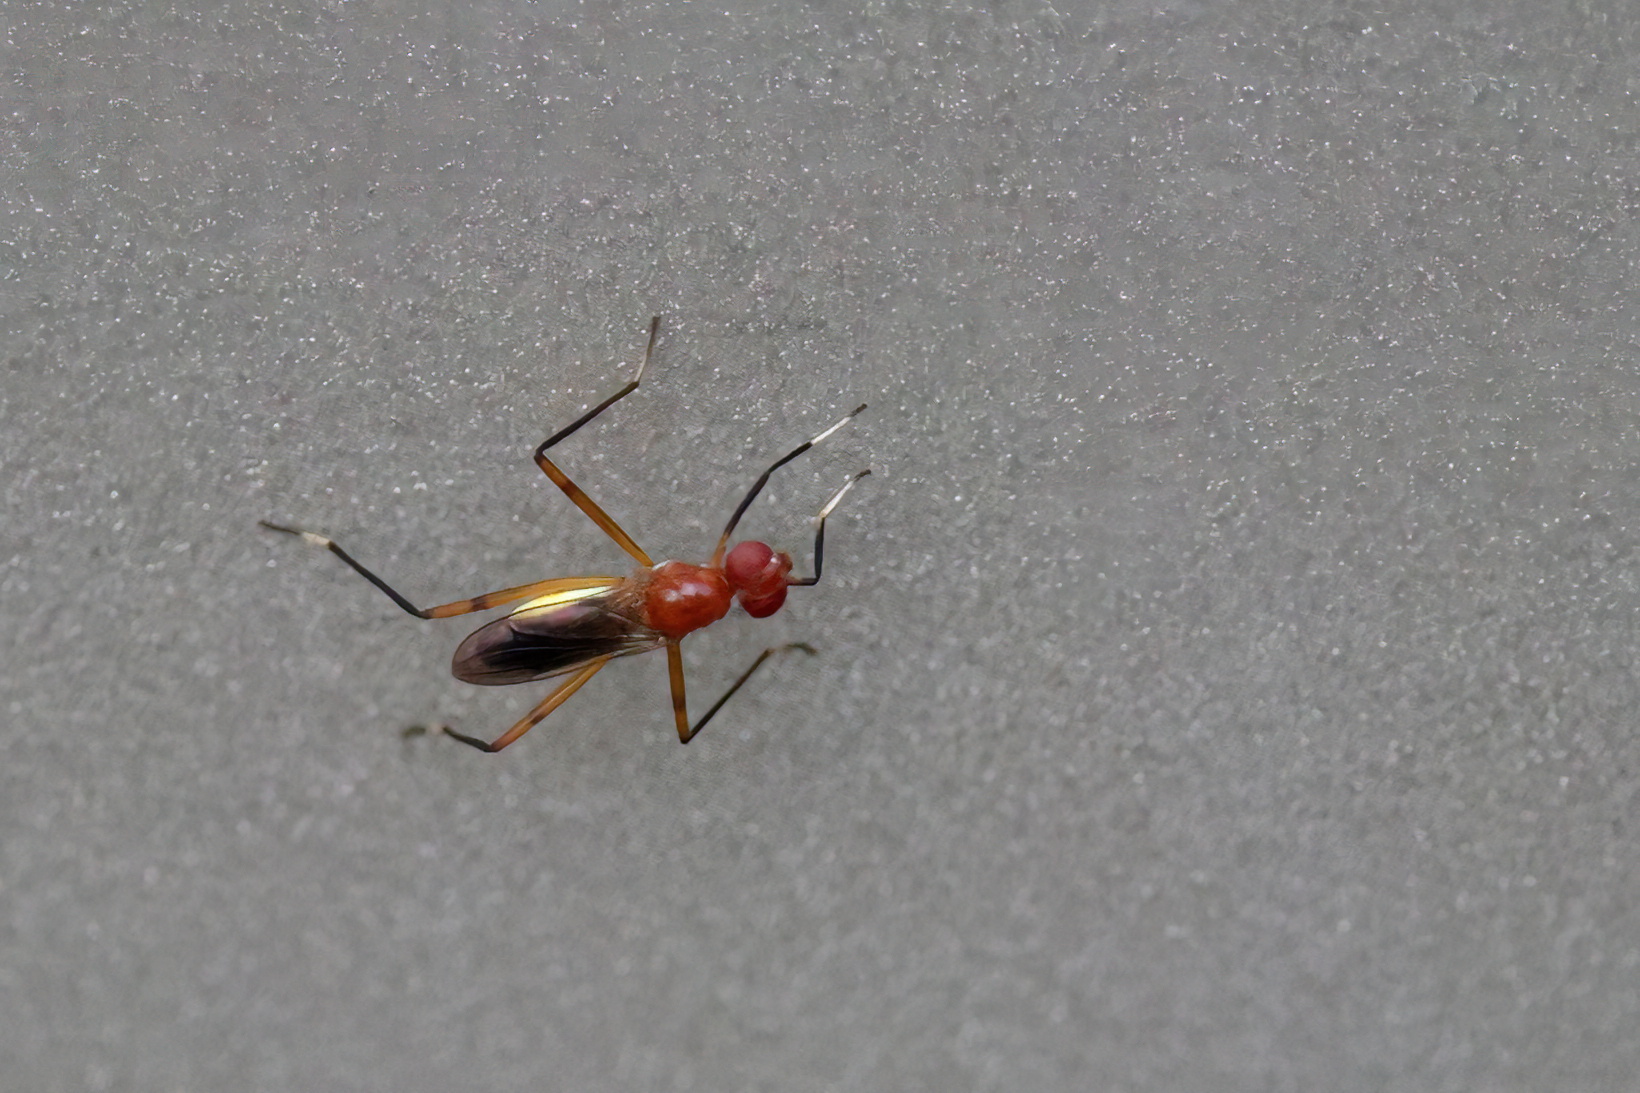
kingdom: Animalia
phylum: Arthropoda
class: Insecta
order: Diptera
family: Micropezidae
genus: Grallipeza
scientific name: Grallipeza nebulosa
